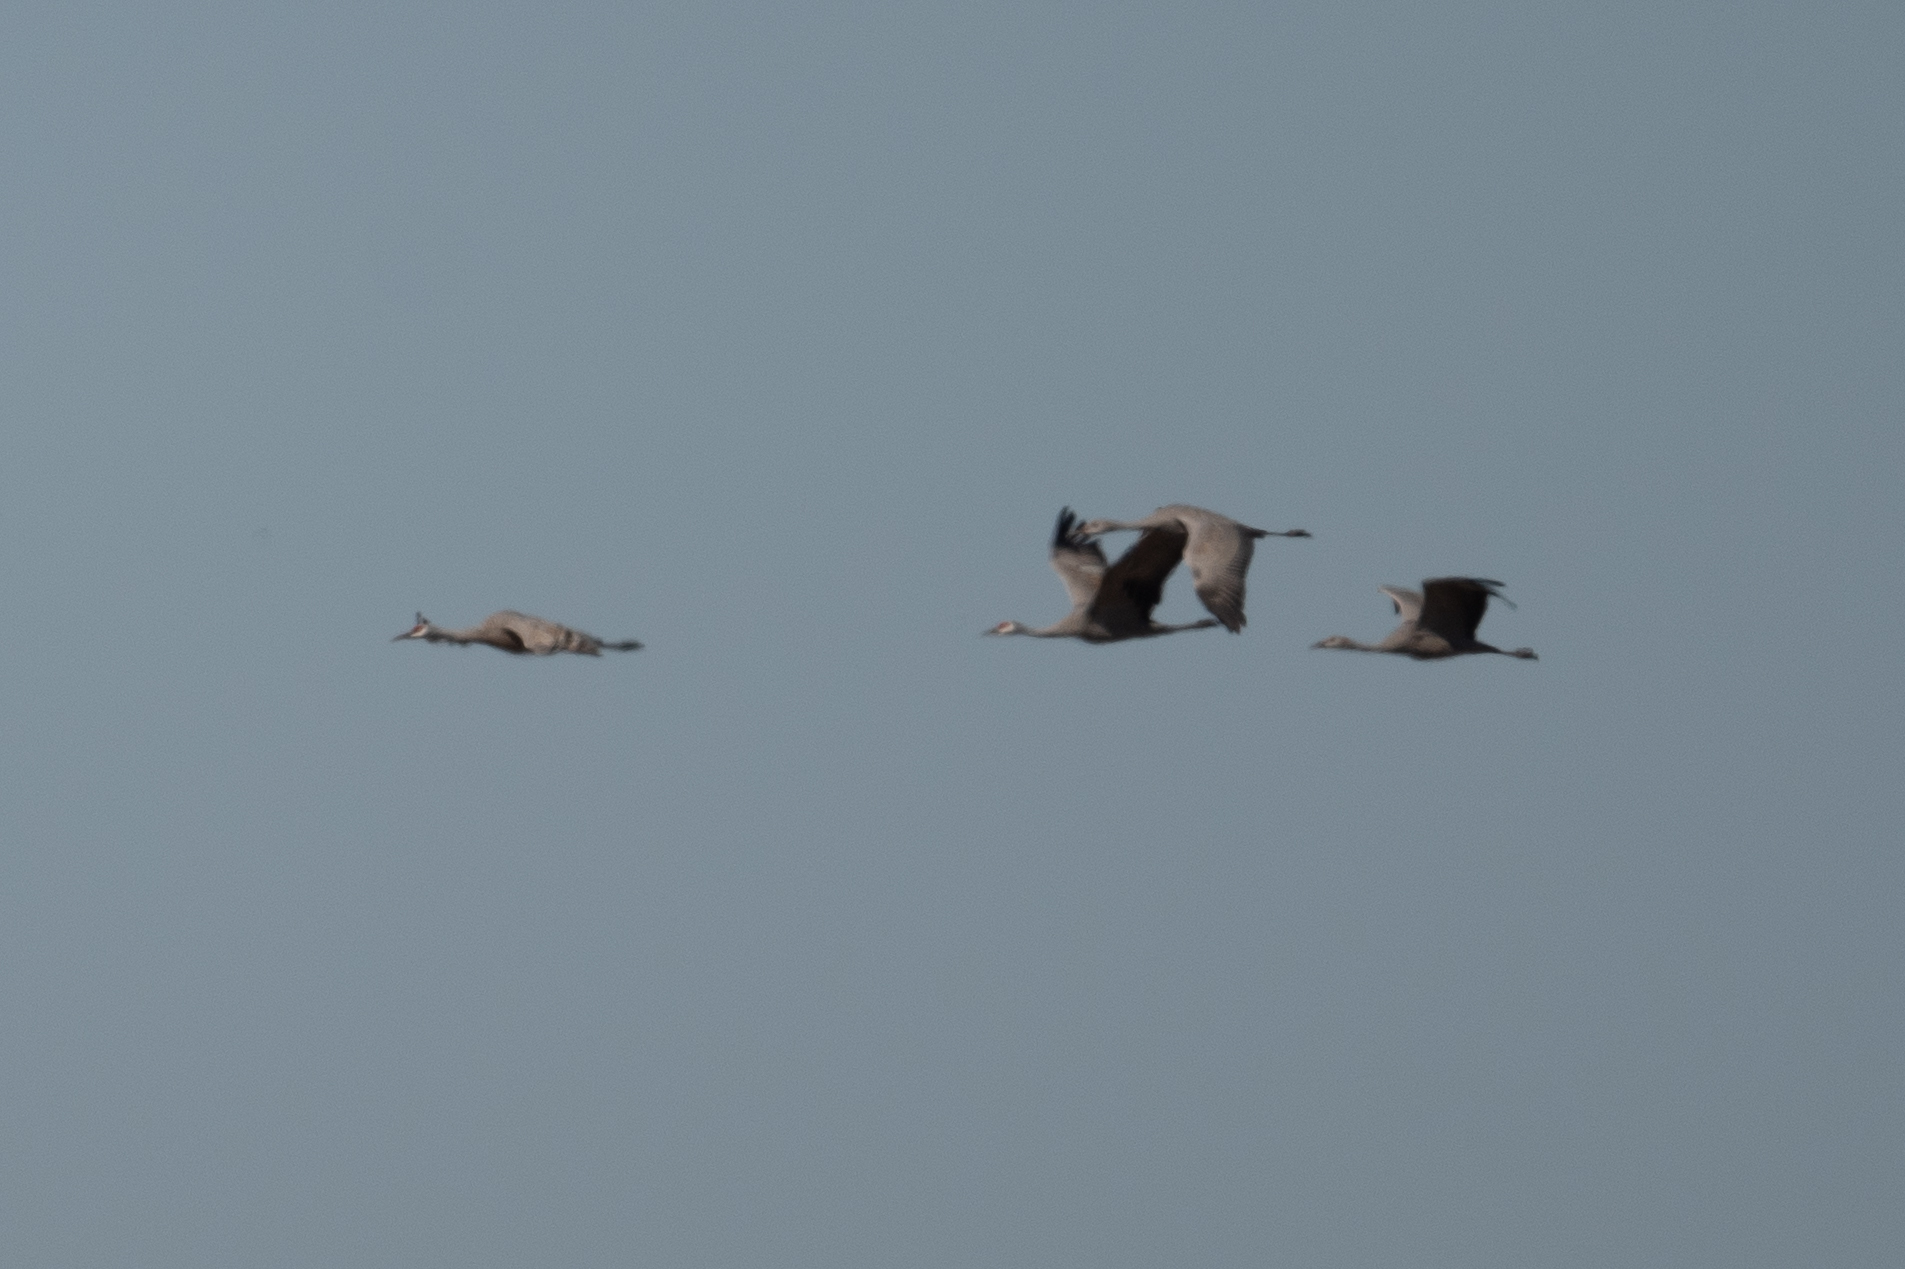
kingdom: Animalia
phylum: Chordata
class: Aves
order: Gruiformes
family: Gruidae
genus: Grus
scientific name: Grus canadensis
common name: Sandhill crane
